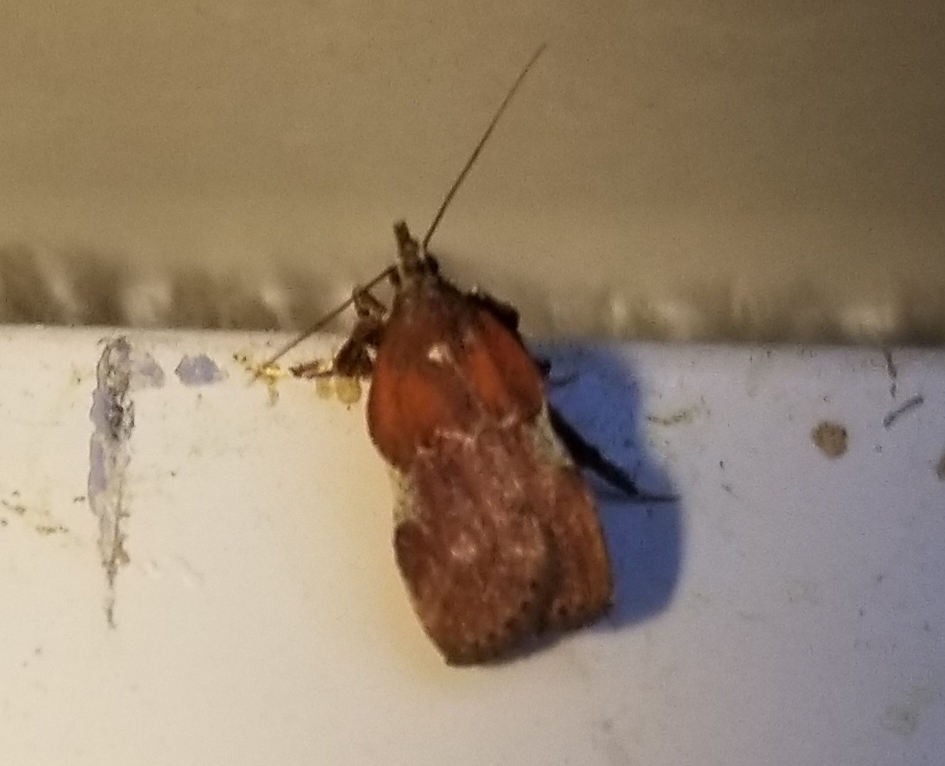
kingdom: Animalia
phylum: Arthropoda
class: Insecta
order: Lepidoptera
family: Pyralidae
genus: Galasa
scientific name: Galasa nigrinodis
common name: Boxwood leaftier moth
